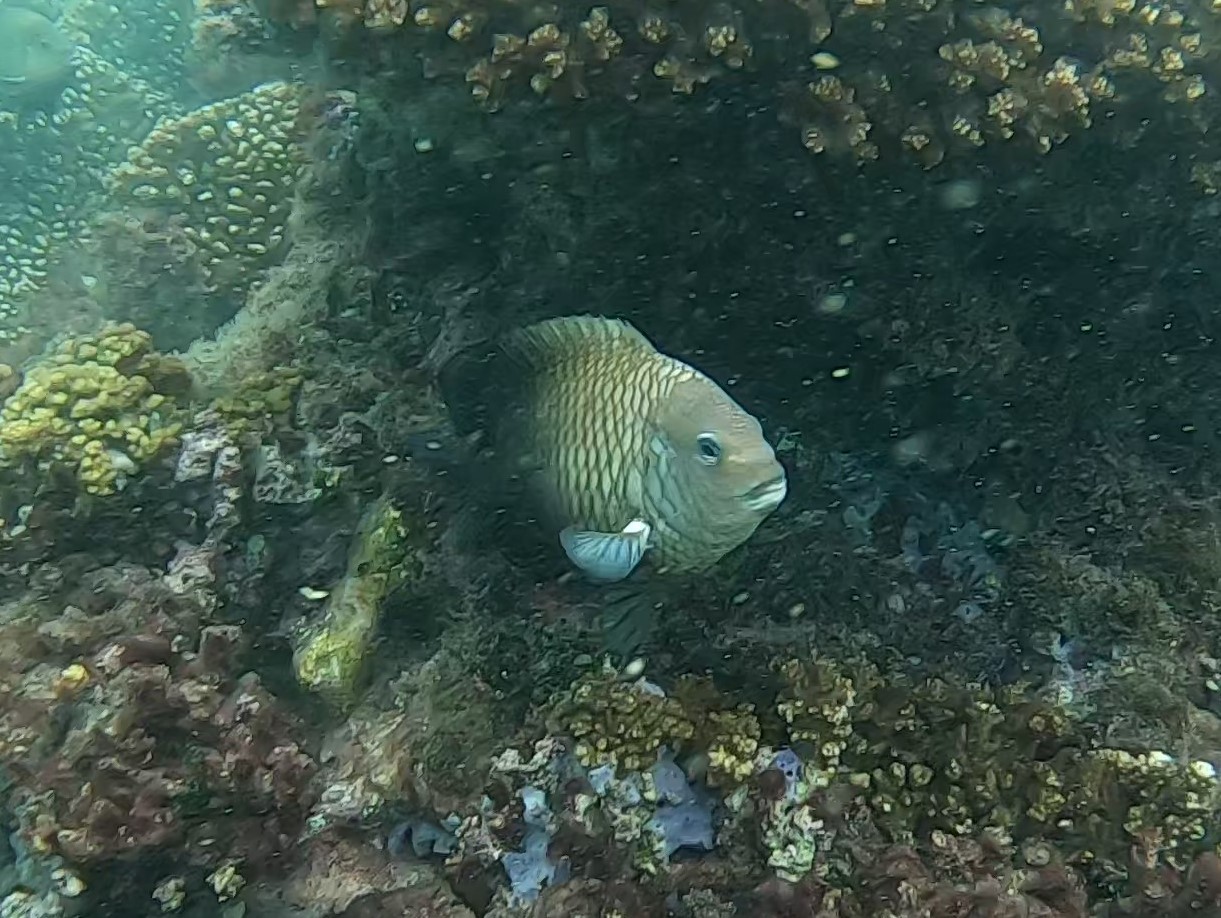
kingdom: Animalia
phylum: Chordata
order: Perciformes
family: Pomacentridae
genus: Stegastes
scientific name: Stegastes acapulcoensis
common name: Acapulco damselfish
